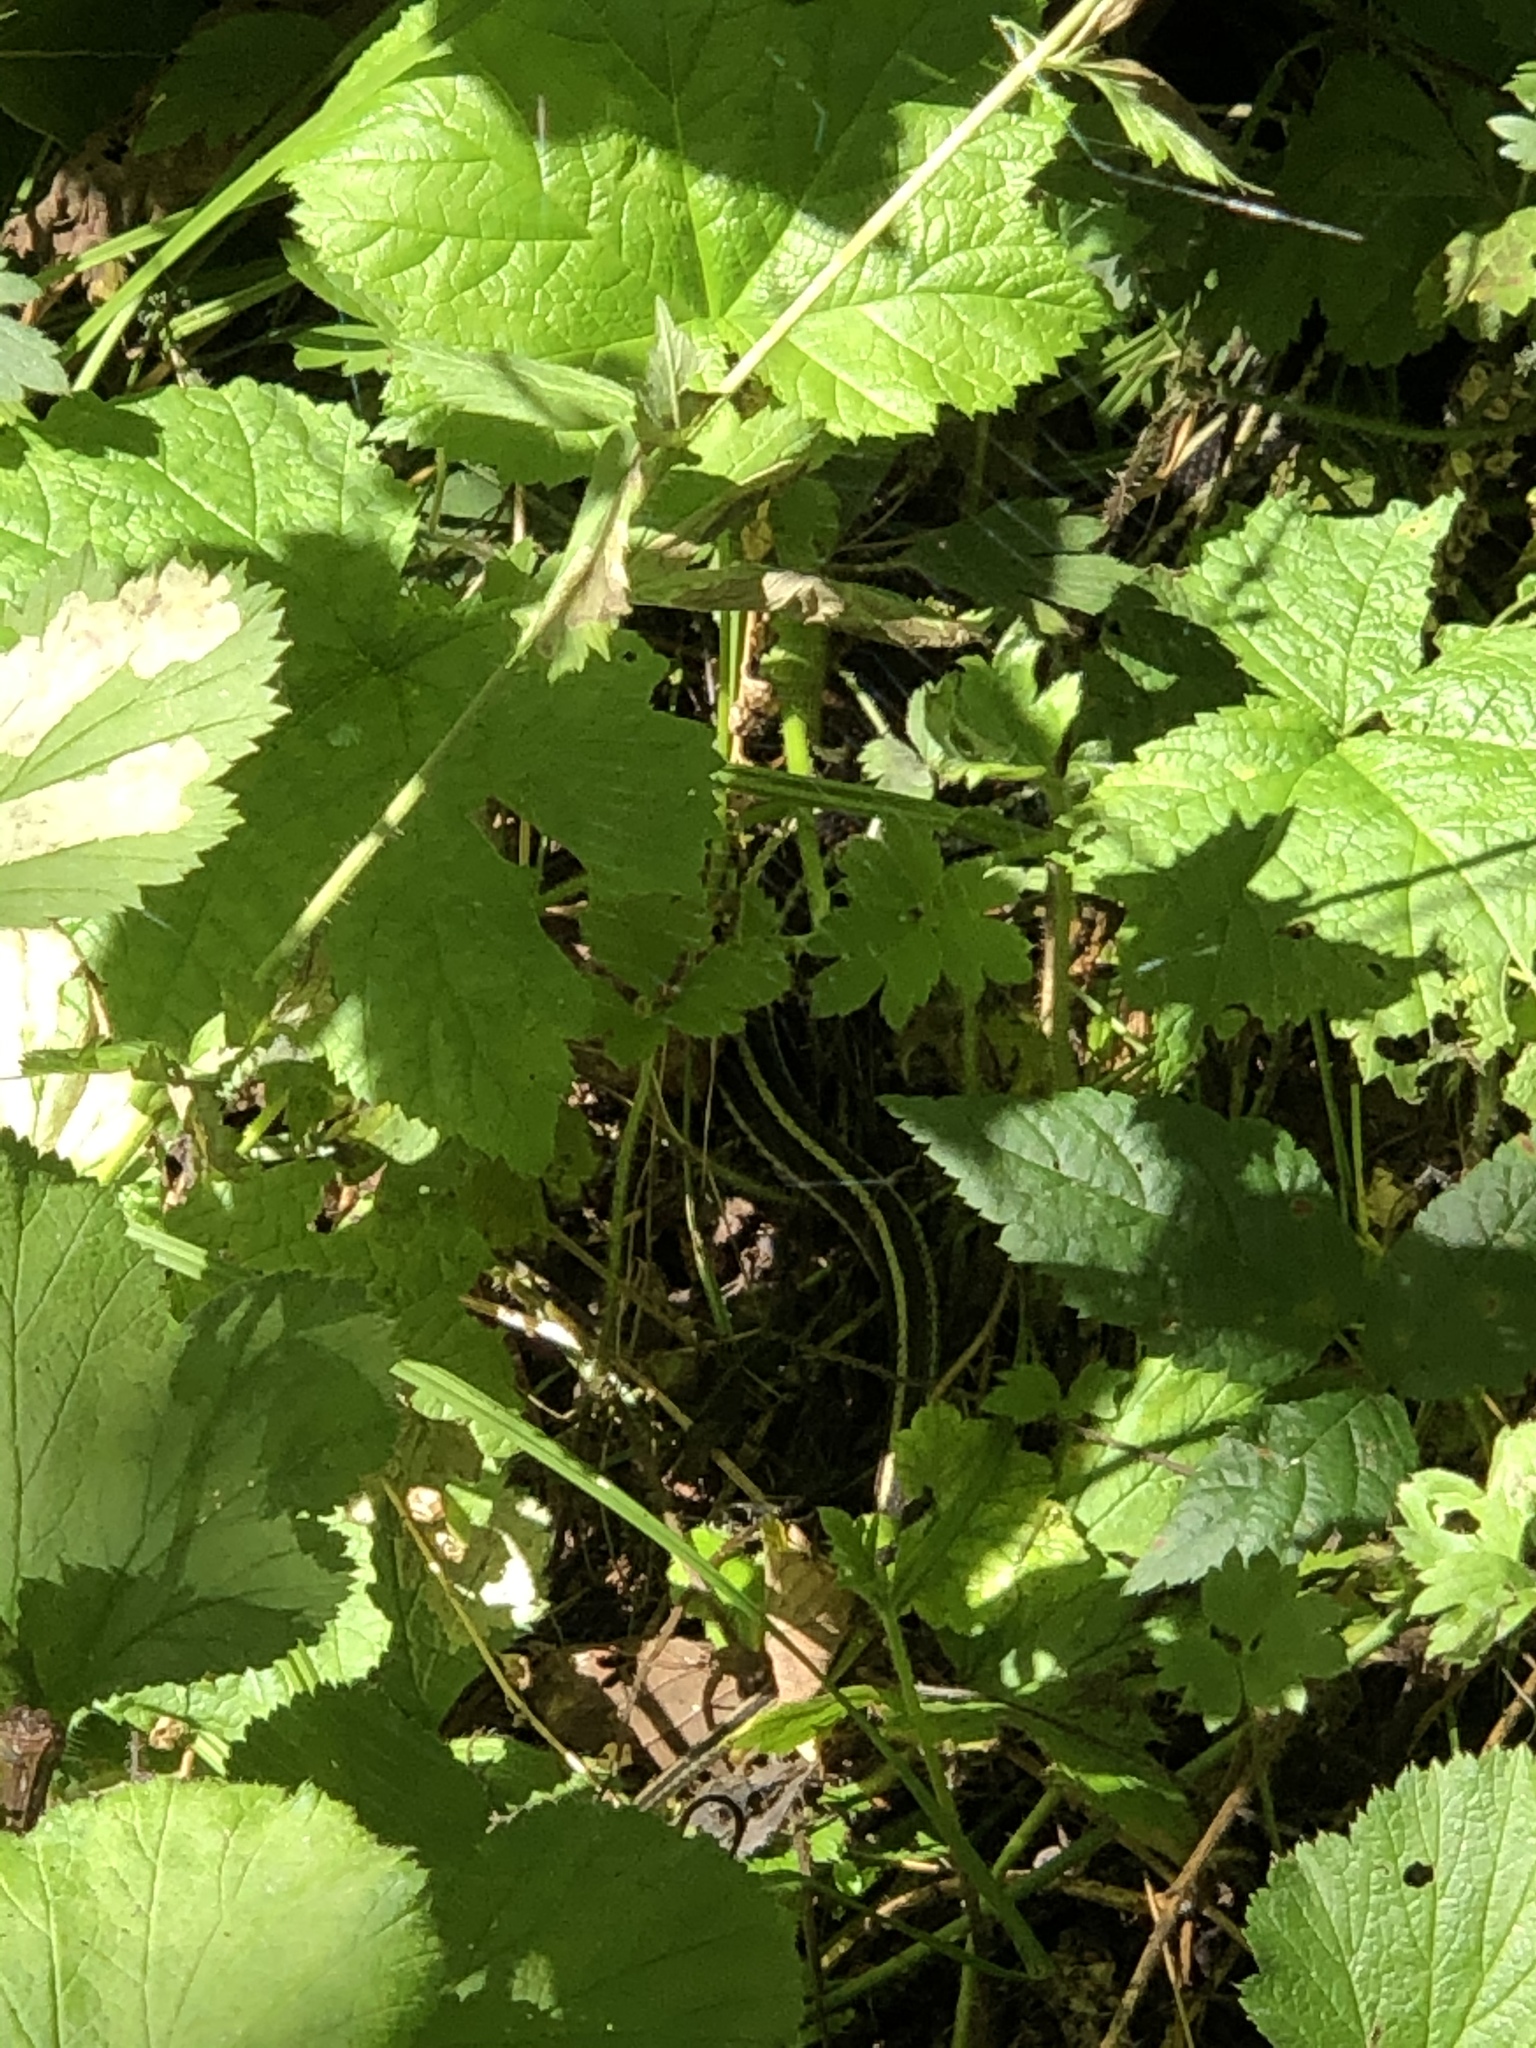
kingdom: Animalia
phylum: Chordata
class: Squamata
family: Colubridae
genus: Thamnophis
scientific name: Thamnophis sirtalis
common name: Common garter snake
